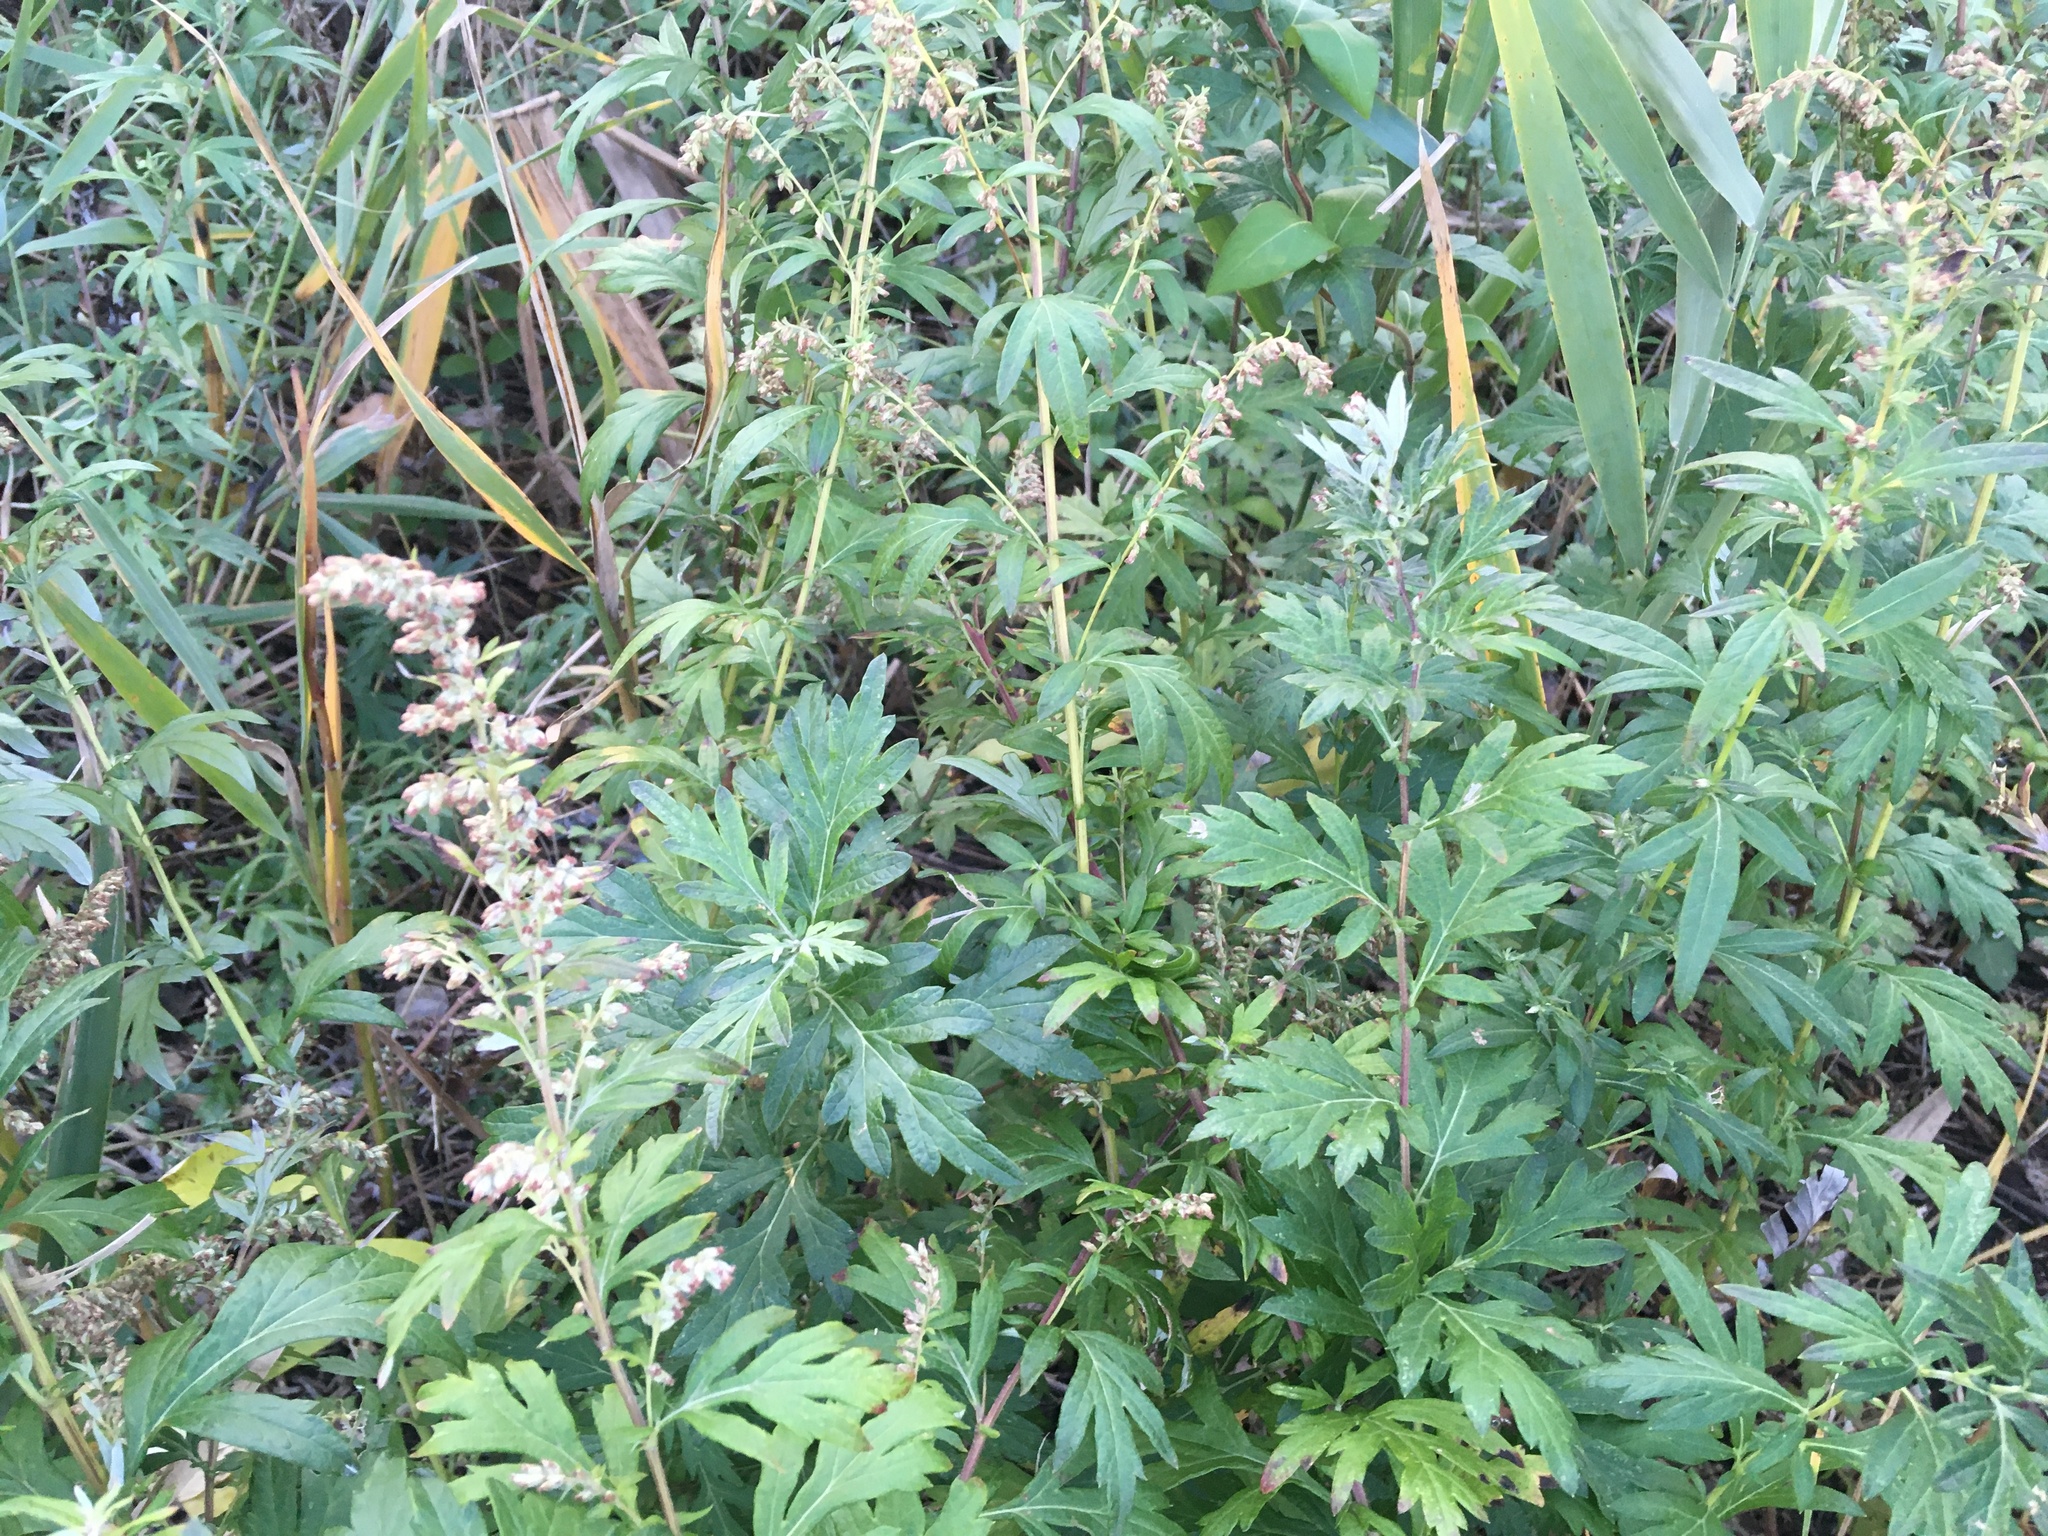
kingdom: Plantae
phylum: Tracheophyta
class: Magnoliopsida
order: Asterales
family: Asteraceae
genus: Artemisia
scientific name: Artemisia vulgaris
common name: Mugwort
